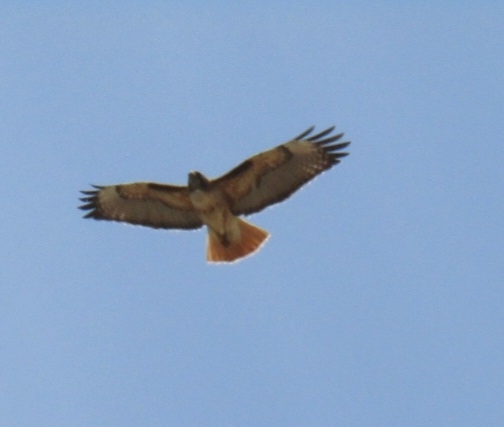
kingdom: Animalia
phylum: Chordata
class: Aves
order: Accipitriformes
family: Accipitridae
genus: Buteo
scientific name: Buteo jamaicensis
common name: Red-tailed hawk
